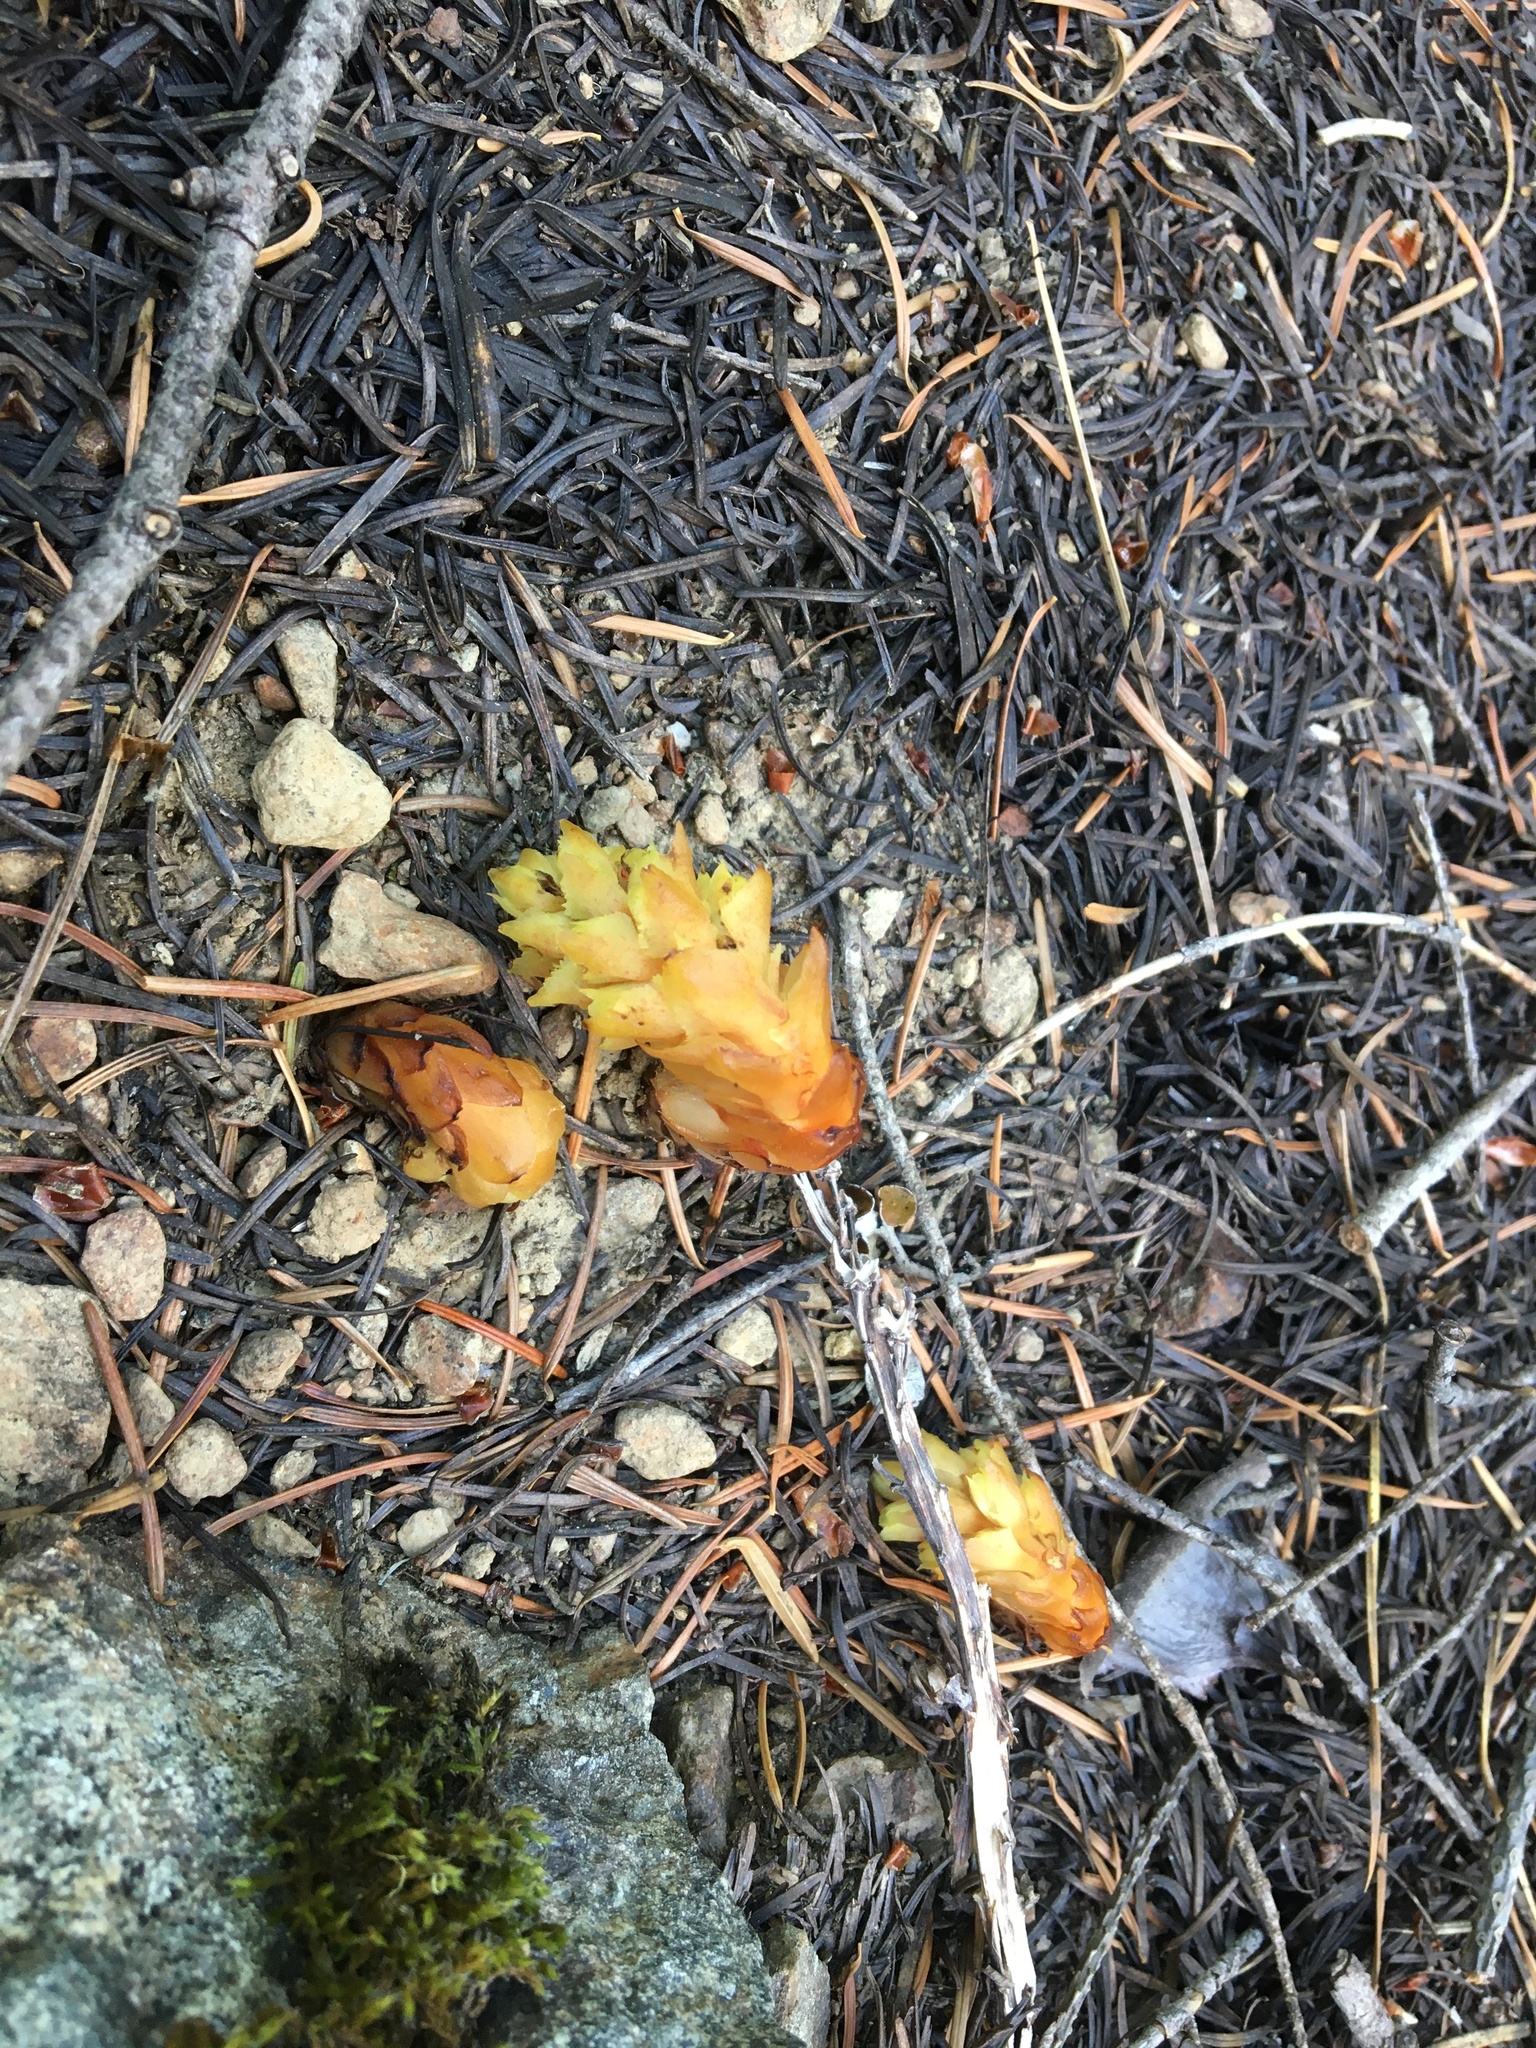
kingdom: Plantae
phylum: Tracheophyta
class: Magnoliopsida
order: Ericales
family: Ericaceae
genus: Hypopitys
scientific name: Hypopitys monotropa
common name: Yellow bird's-nest
